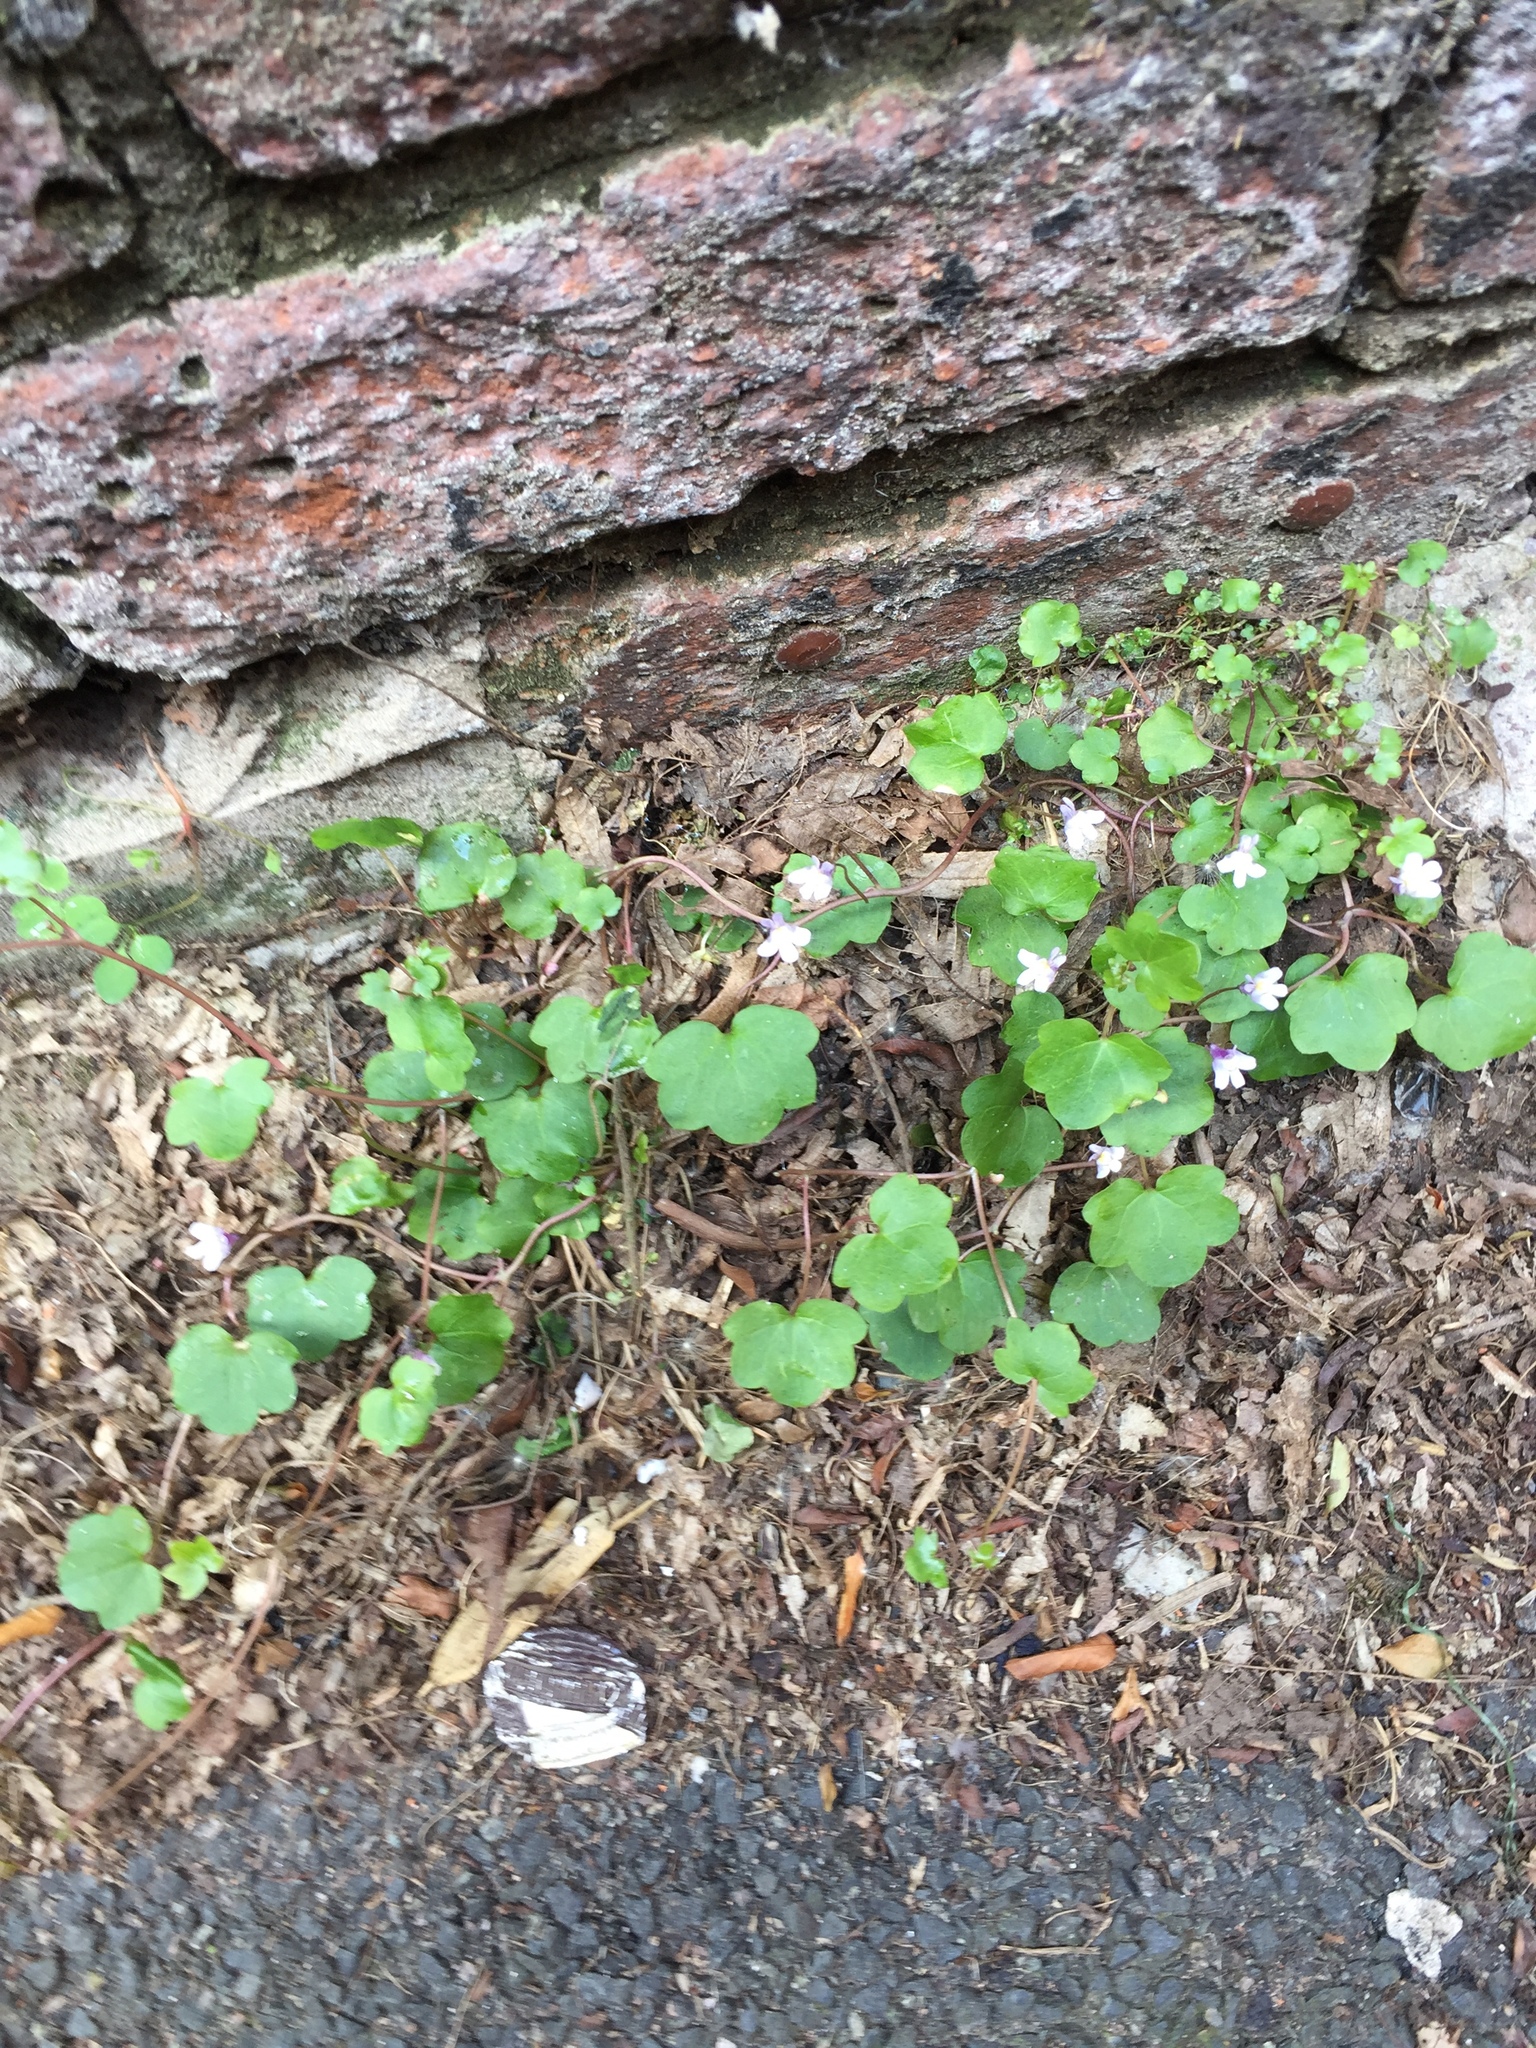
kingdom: Plantae
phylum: Tracheophyta
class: Magnoliopsida
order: Lamiales
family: Plantaginaceae
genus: Cymbalaria
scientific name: Cymbalaria muralis
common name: Ivy-leaved toadflax
